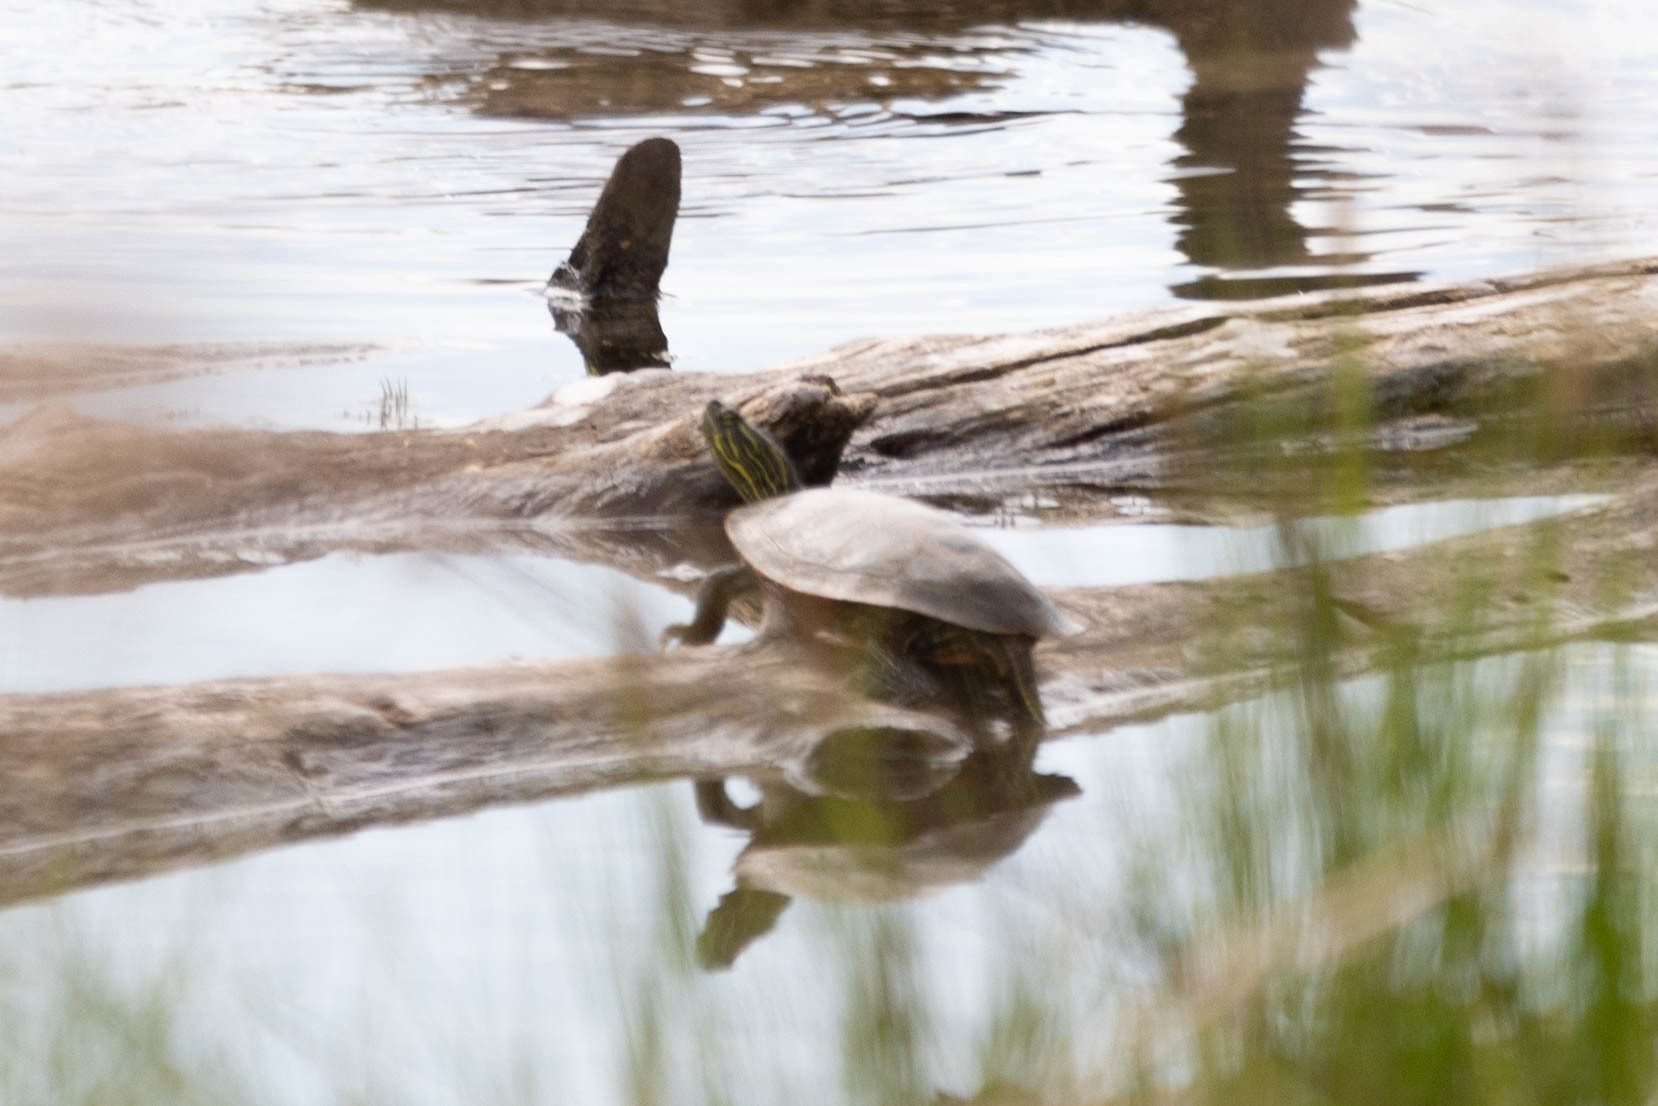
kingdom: Animalia
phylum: Chordata
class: Testudines
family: Emydidae
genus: Chrysemys
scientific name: Chrysemys picta
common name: Painted turtle
